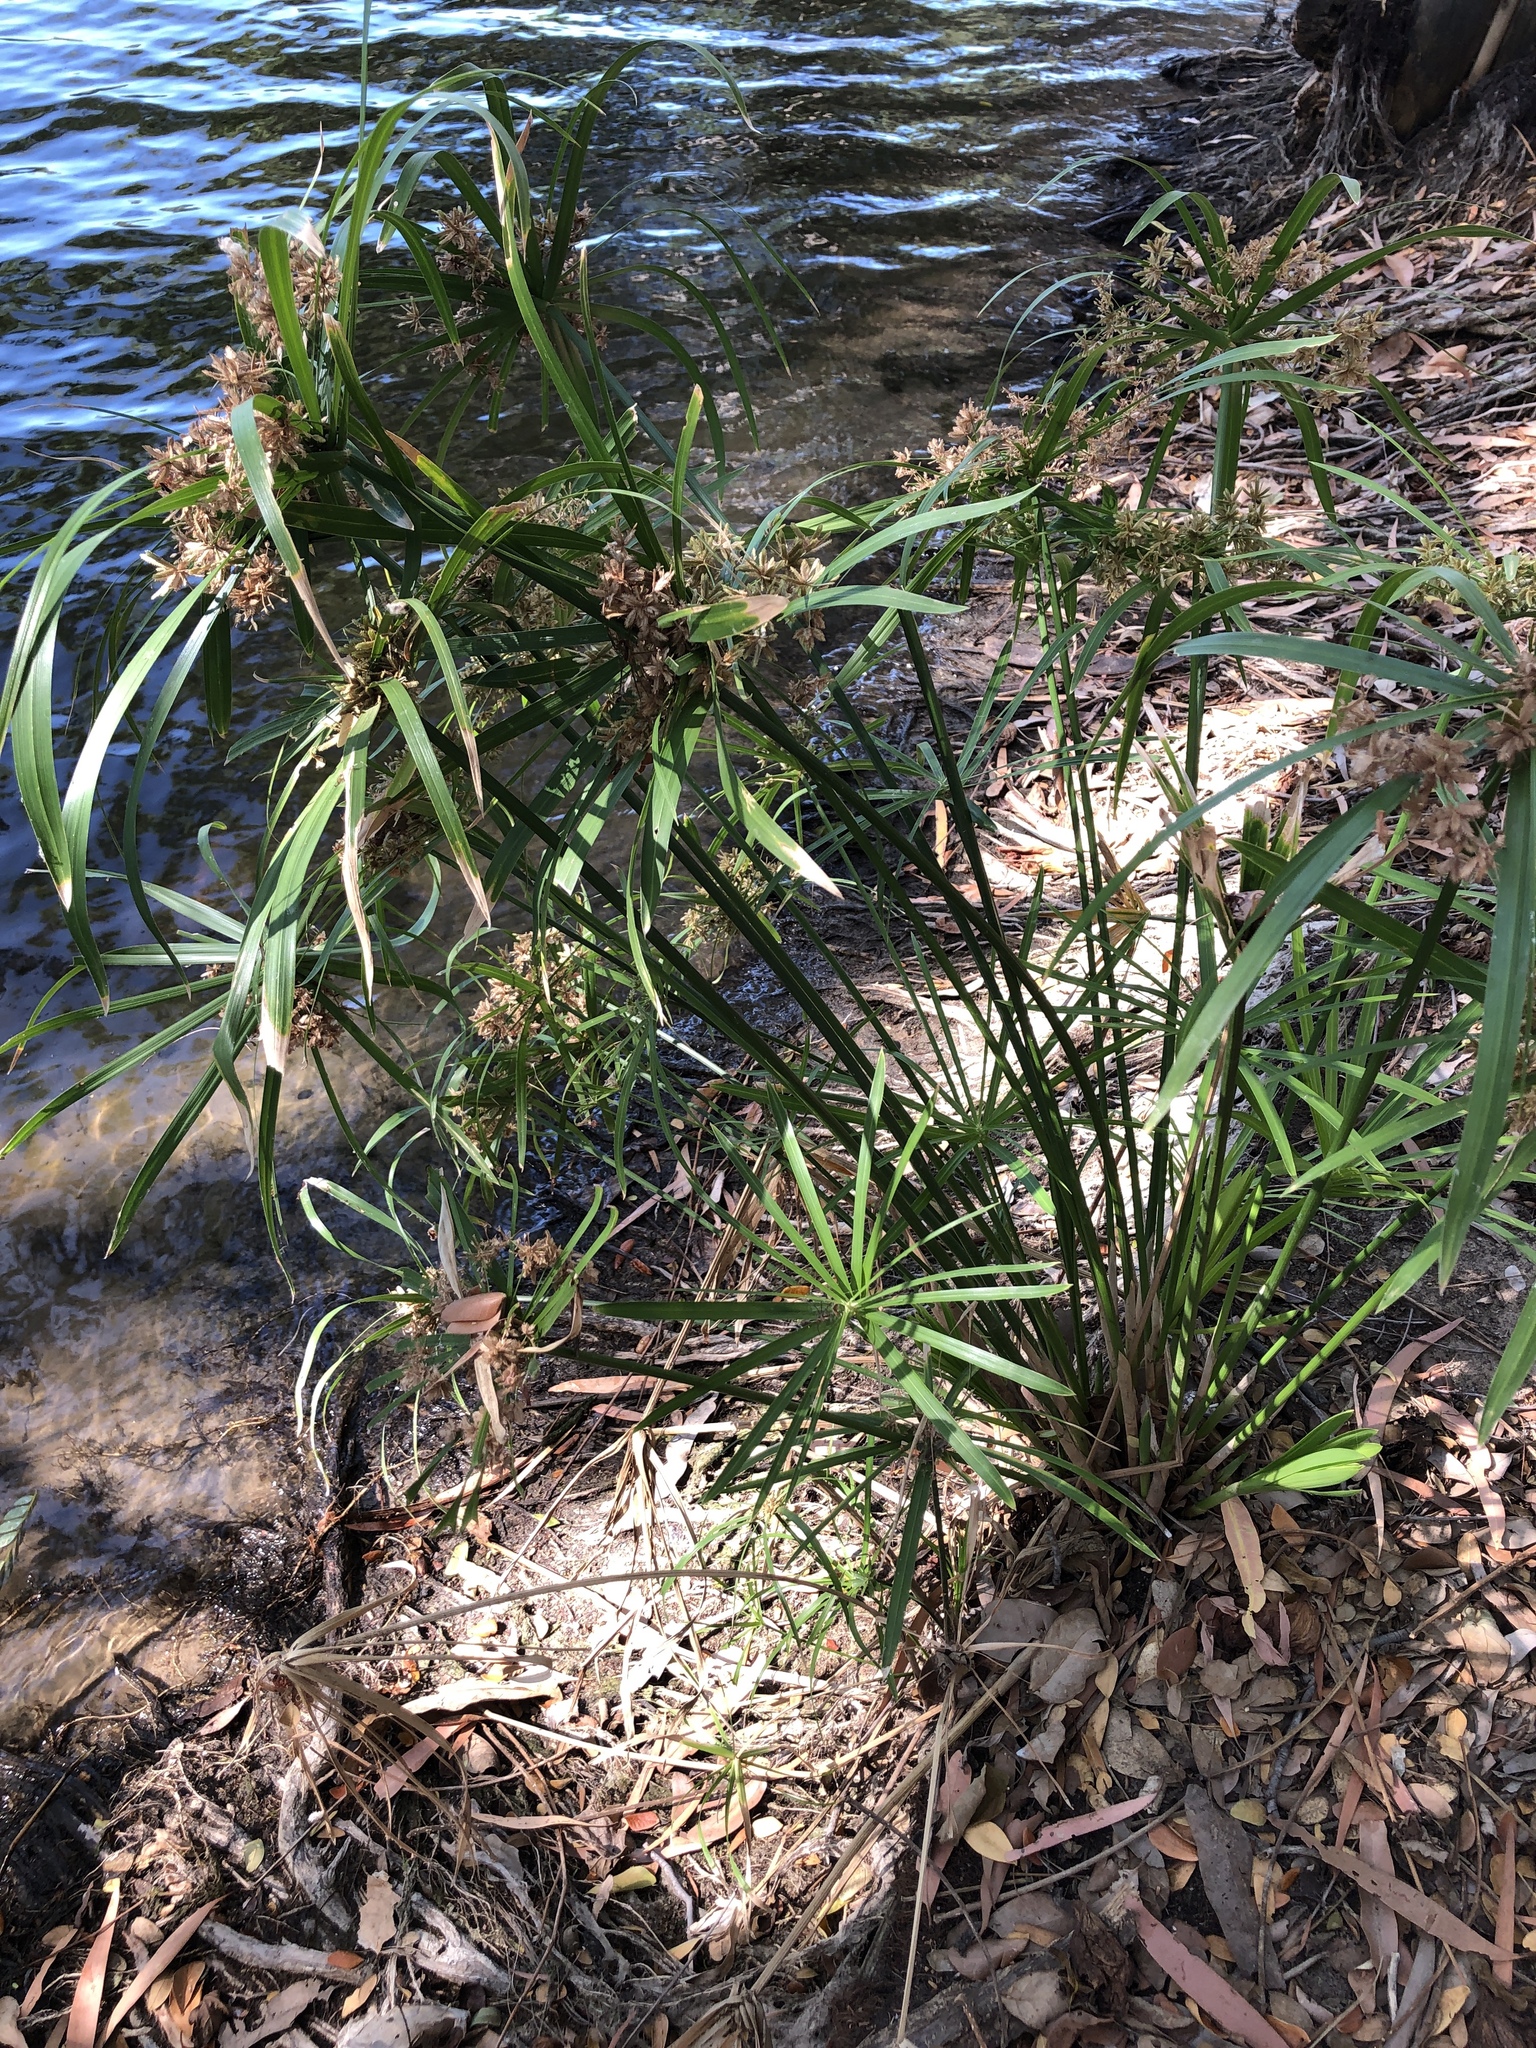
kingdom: Plantae
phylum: Tracheophyta
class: Liliopsida
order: Poales
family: Cyperaceae
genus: Cyperus
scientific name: Cyperus alternifolius
